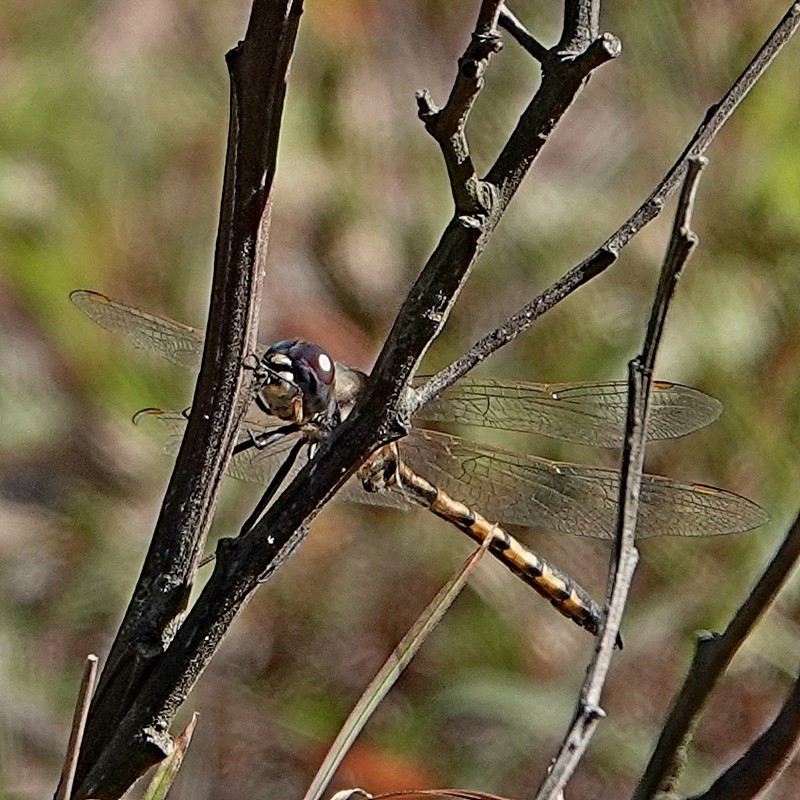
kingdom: Animalia
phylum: Arthropoda
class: Insecta
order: Odonata
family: Corduliidae
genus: Hemicordulia
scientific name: Hemicordulia tau
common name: Tau emerald
